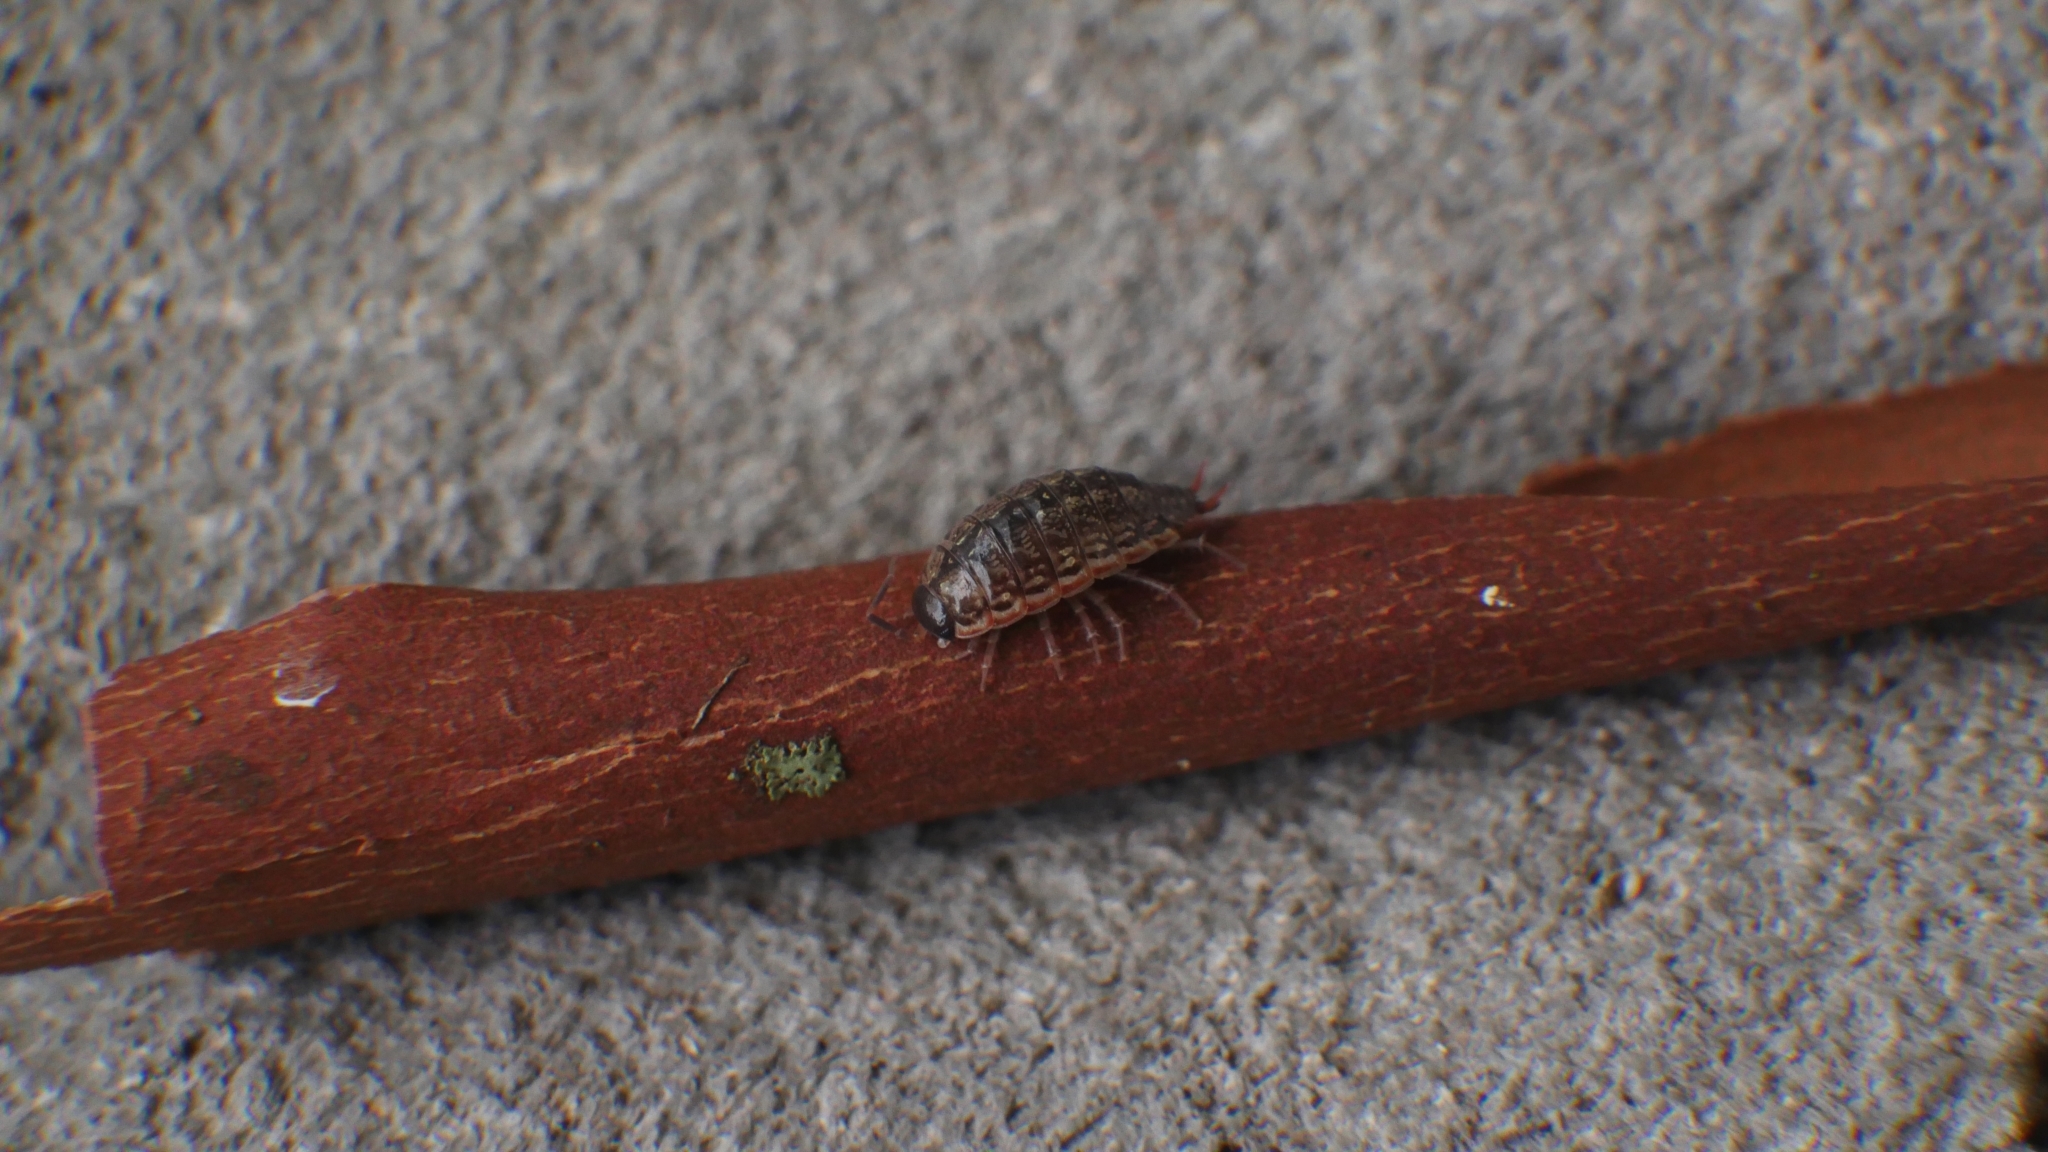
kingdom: Animalia
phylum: Arthropoda
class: Malacostraca
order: Isopoda
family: Philosciidae
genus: Philoscia
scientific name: Philoscia muscorum
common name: Common striped woodlouse
